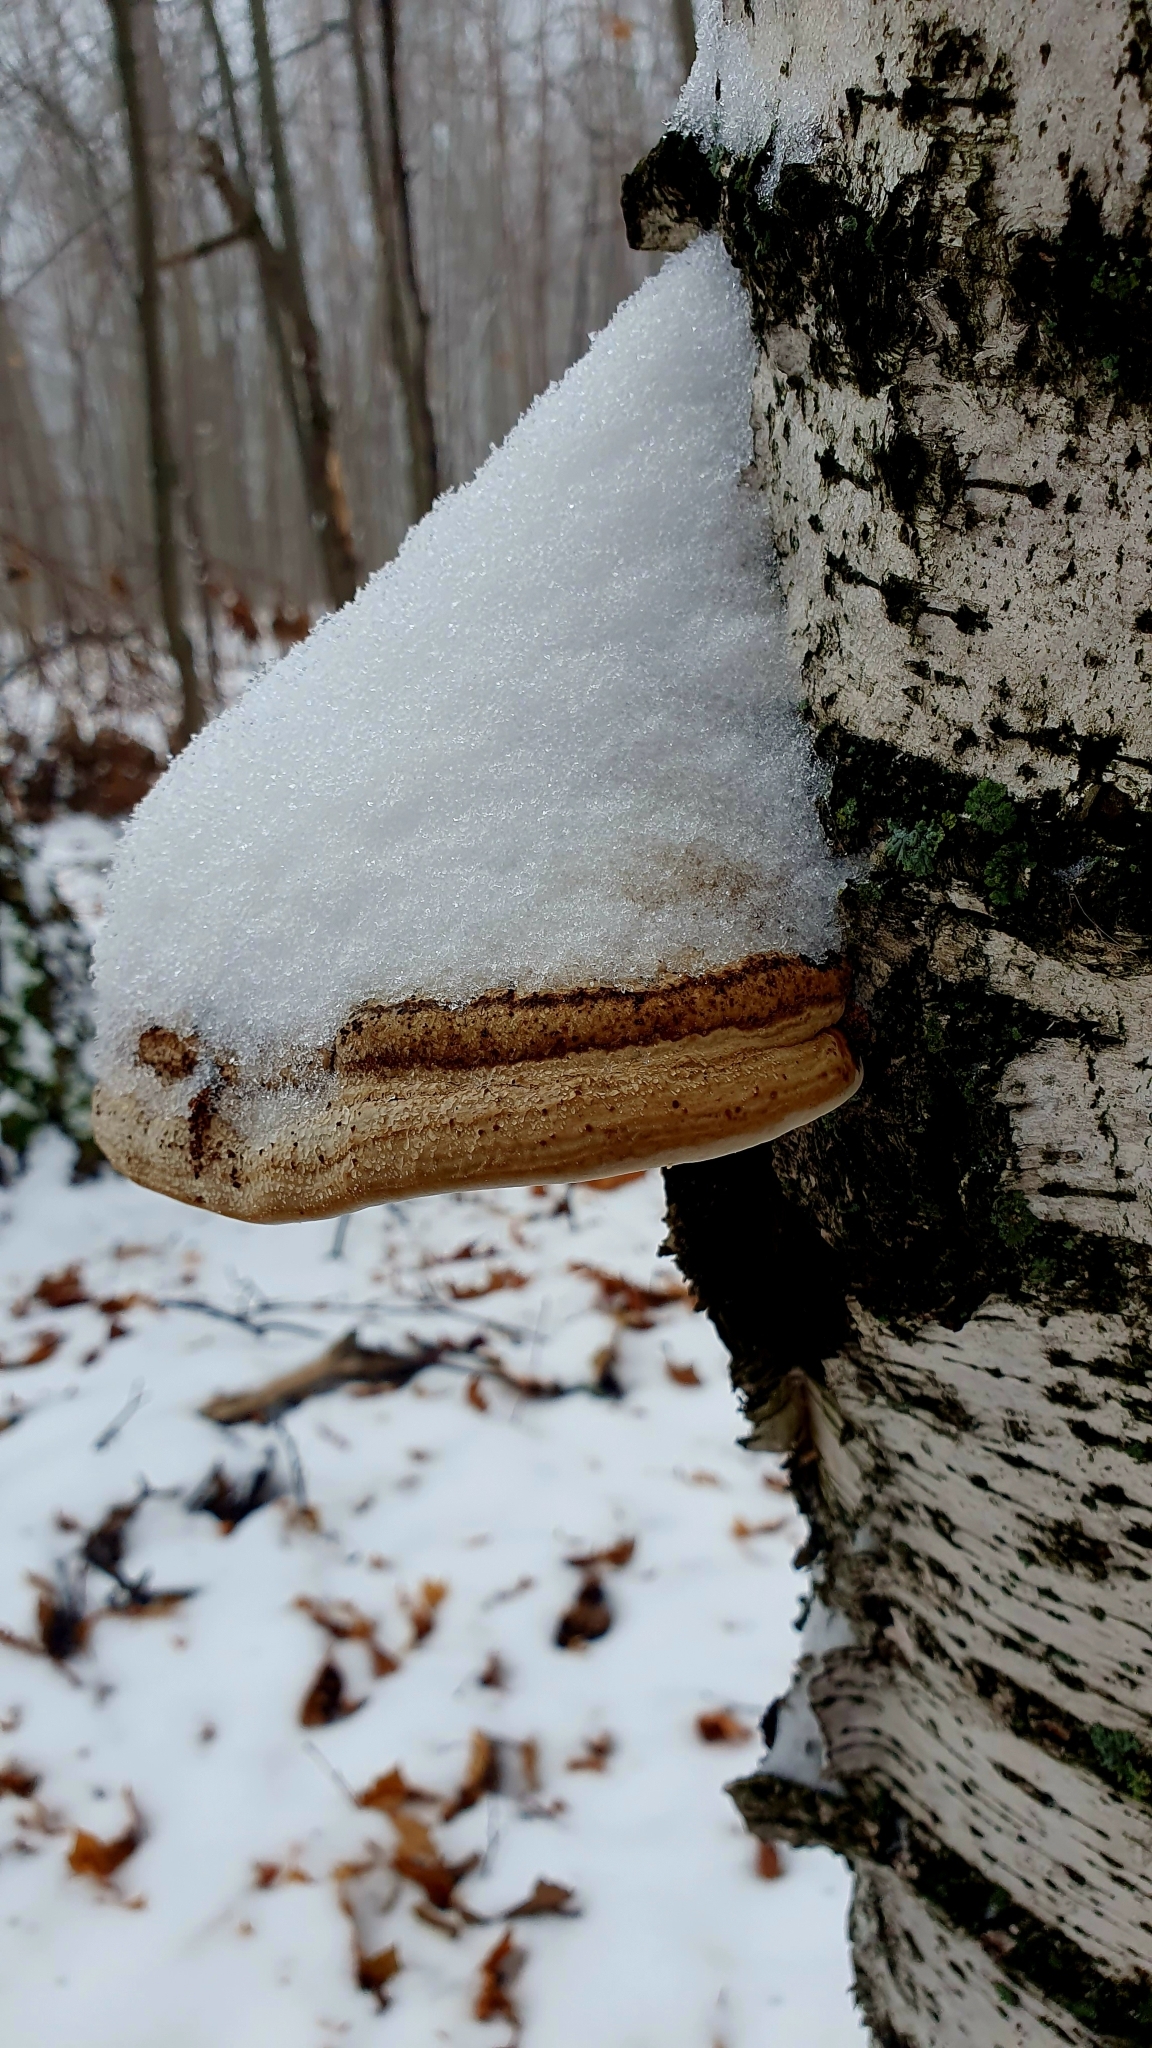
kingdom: Fungi
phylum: Basidiomycota
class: Agaricomycetes
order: Polyporales
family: Polyporaceae
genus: Fomes
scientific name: Fomes fomentarius
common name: Hoof fungus
